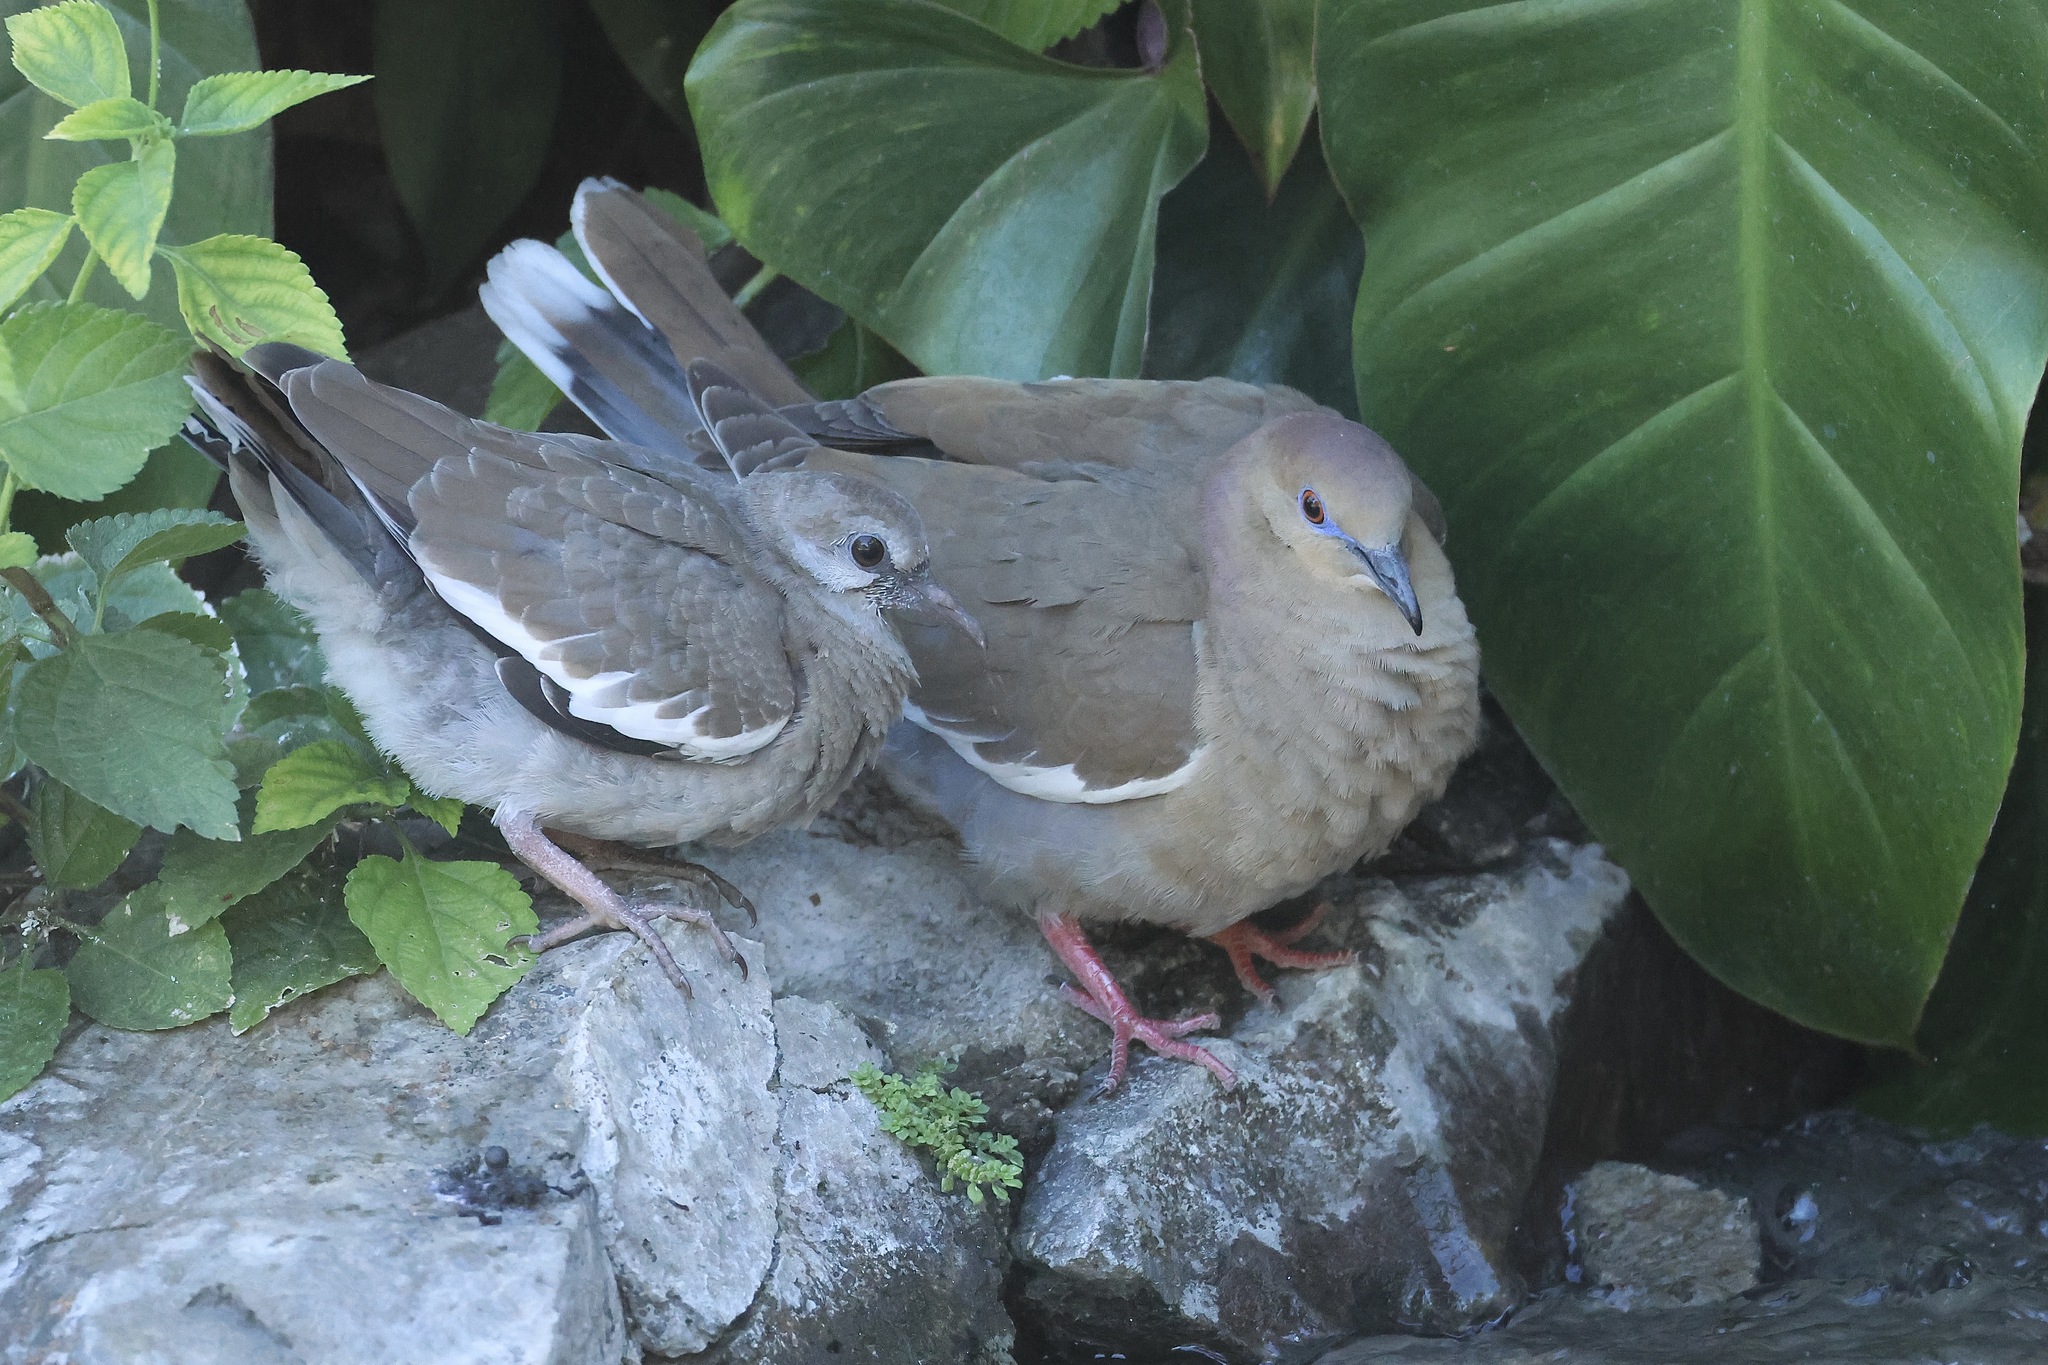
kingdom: Animalia
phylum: Chordata
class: Aves
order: Columbiformes
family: Columbidae
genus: Zenaida
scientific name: Zenaida asiatica
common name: White-winged dove
